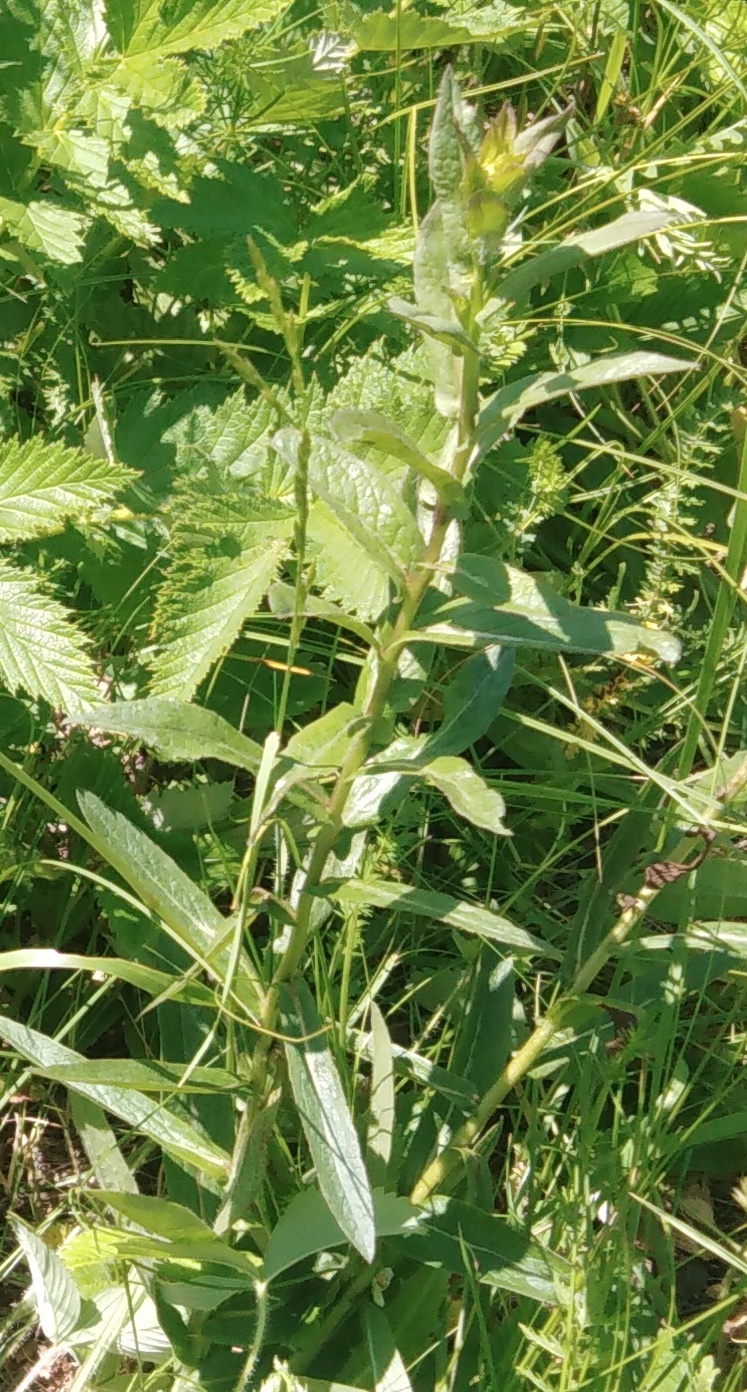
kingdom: Plantae
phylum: Tracheophyta
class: Magnoliopsida
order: Asterales
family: Asteraceae
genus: Pentanema
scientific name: Pentanema salicinum
